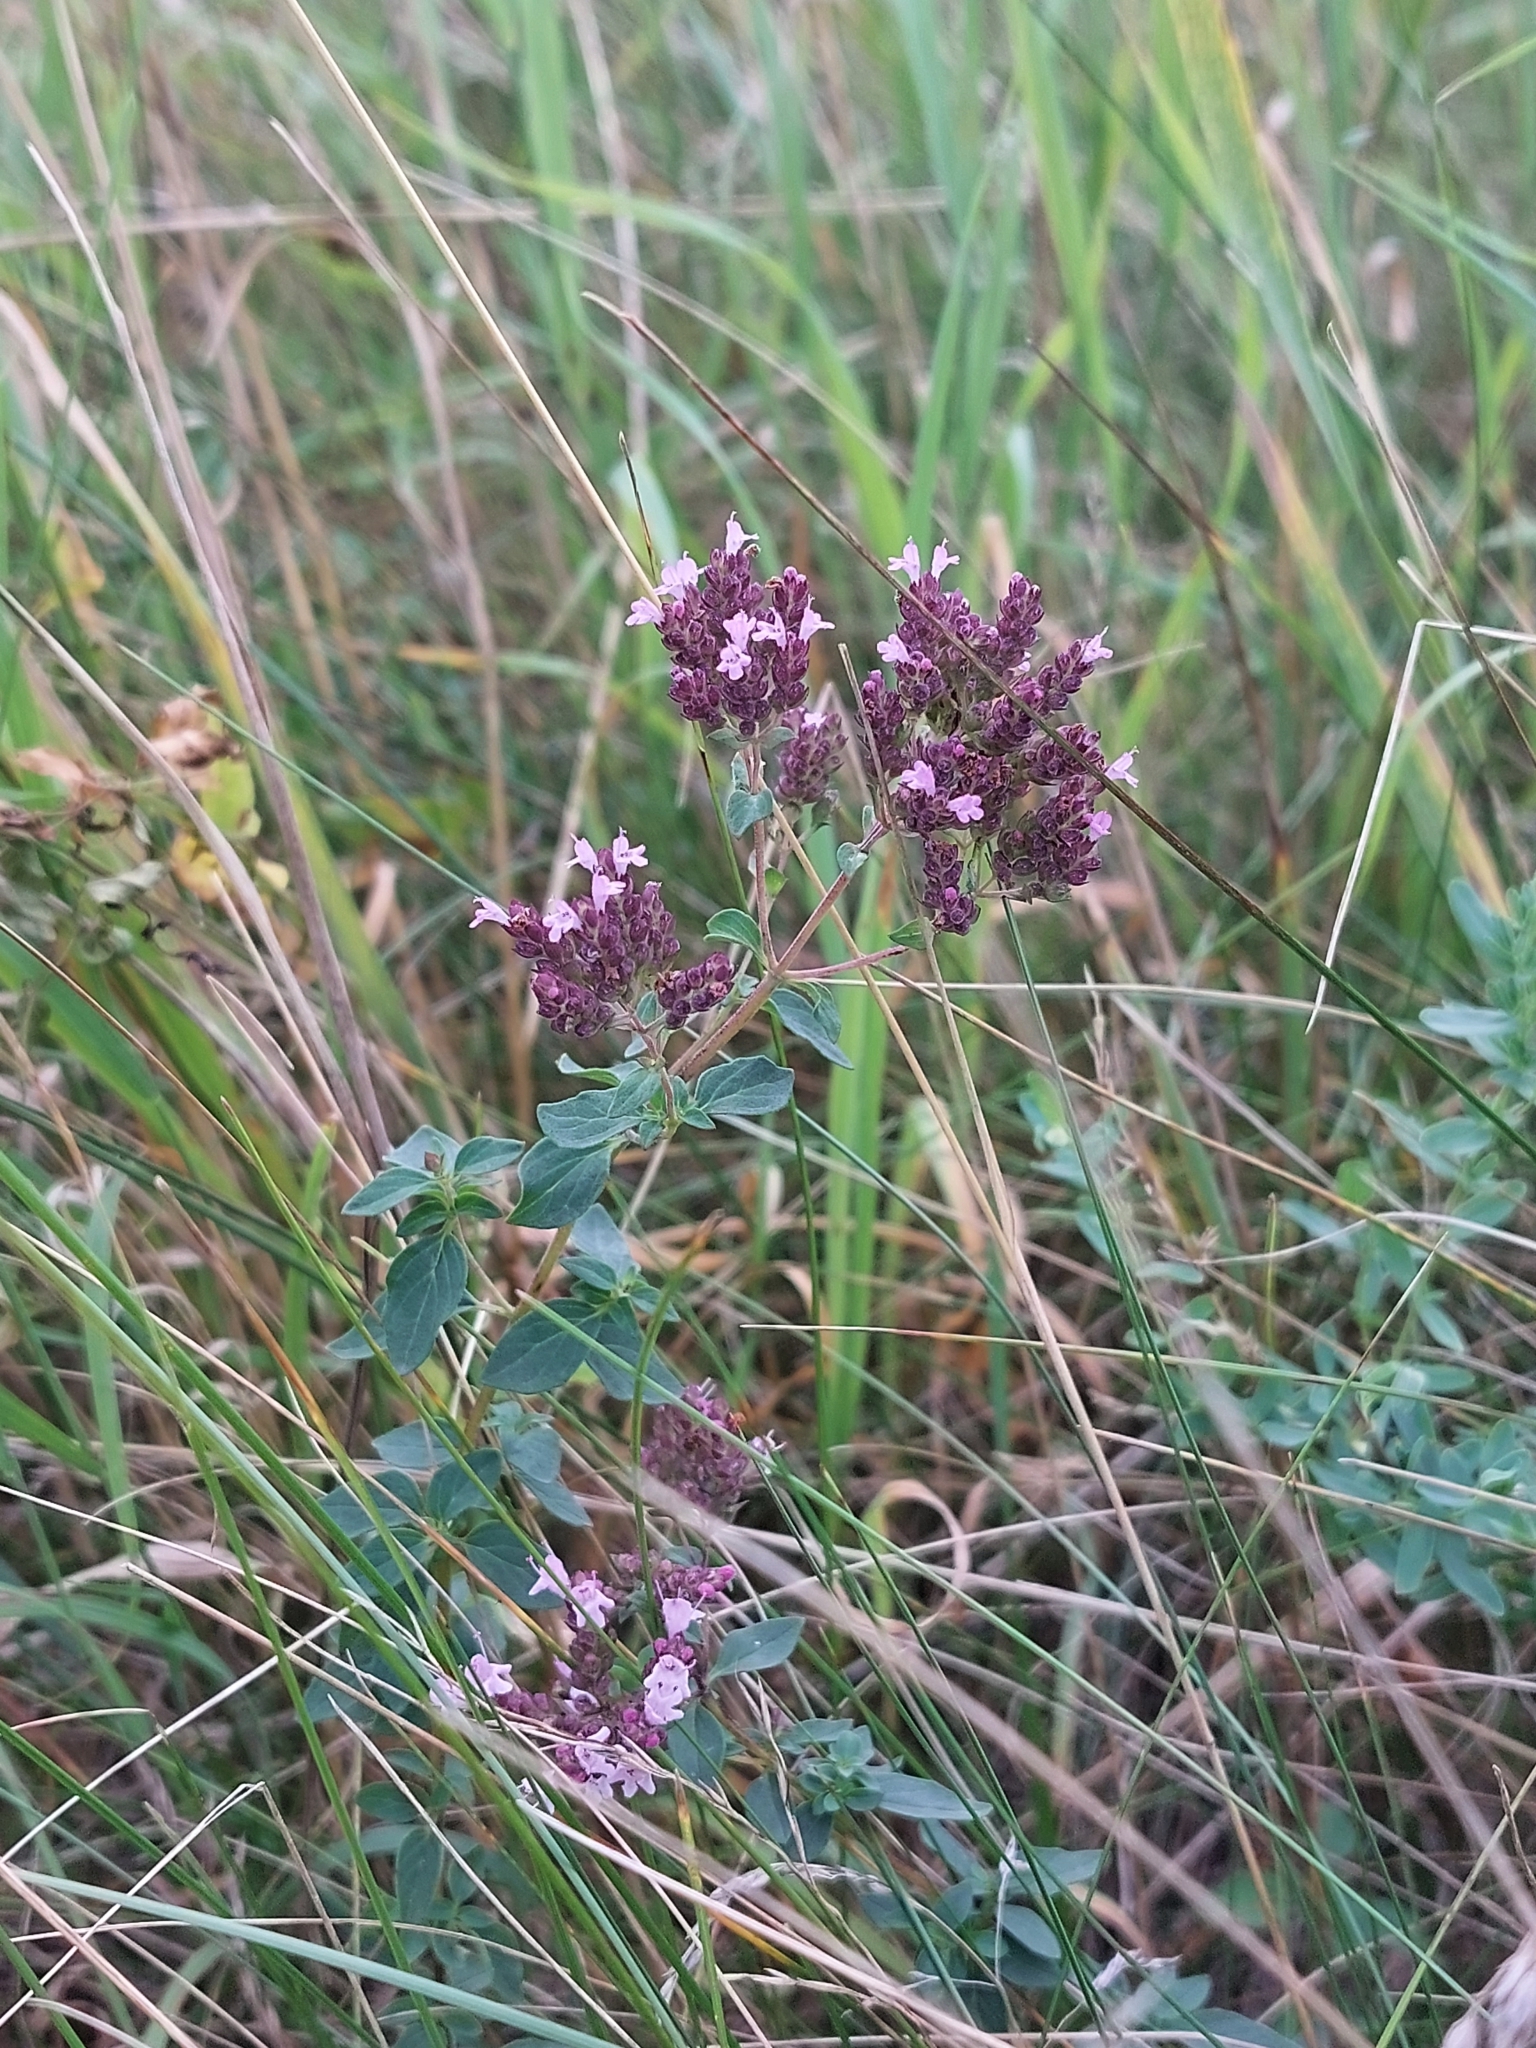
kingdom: Plantae
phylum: Tracheophyta
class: Magnoliopsida
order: Lamiales
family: Lamiaceae
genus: Origanum
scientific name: Origanum vulgare
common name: Wild marjoram
